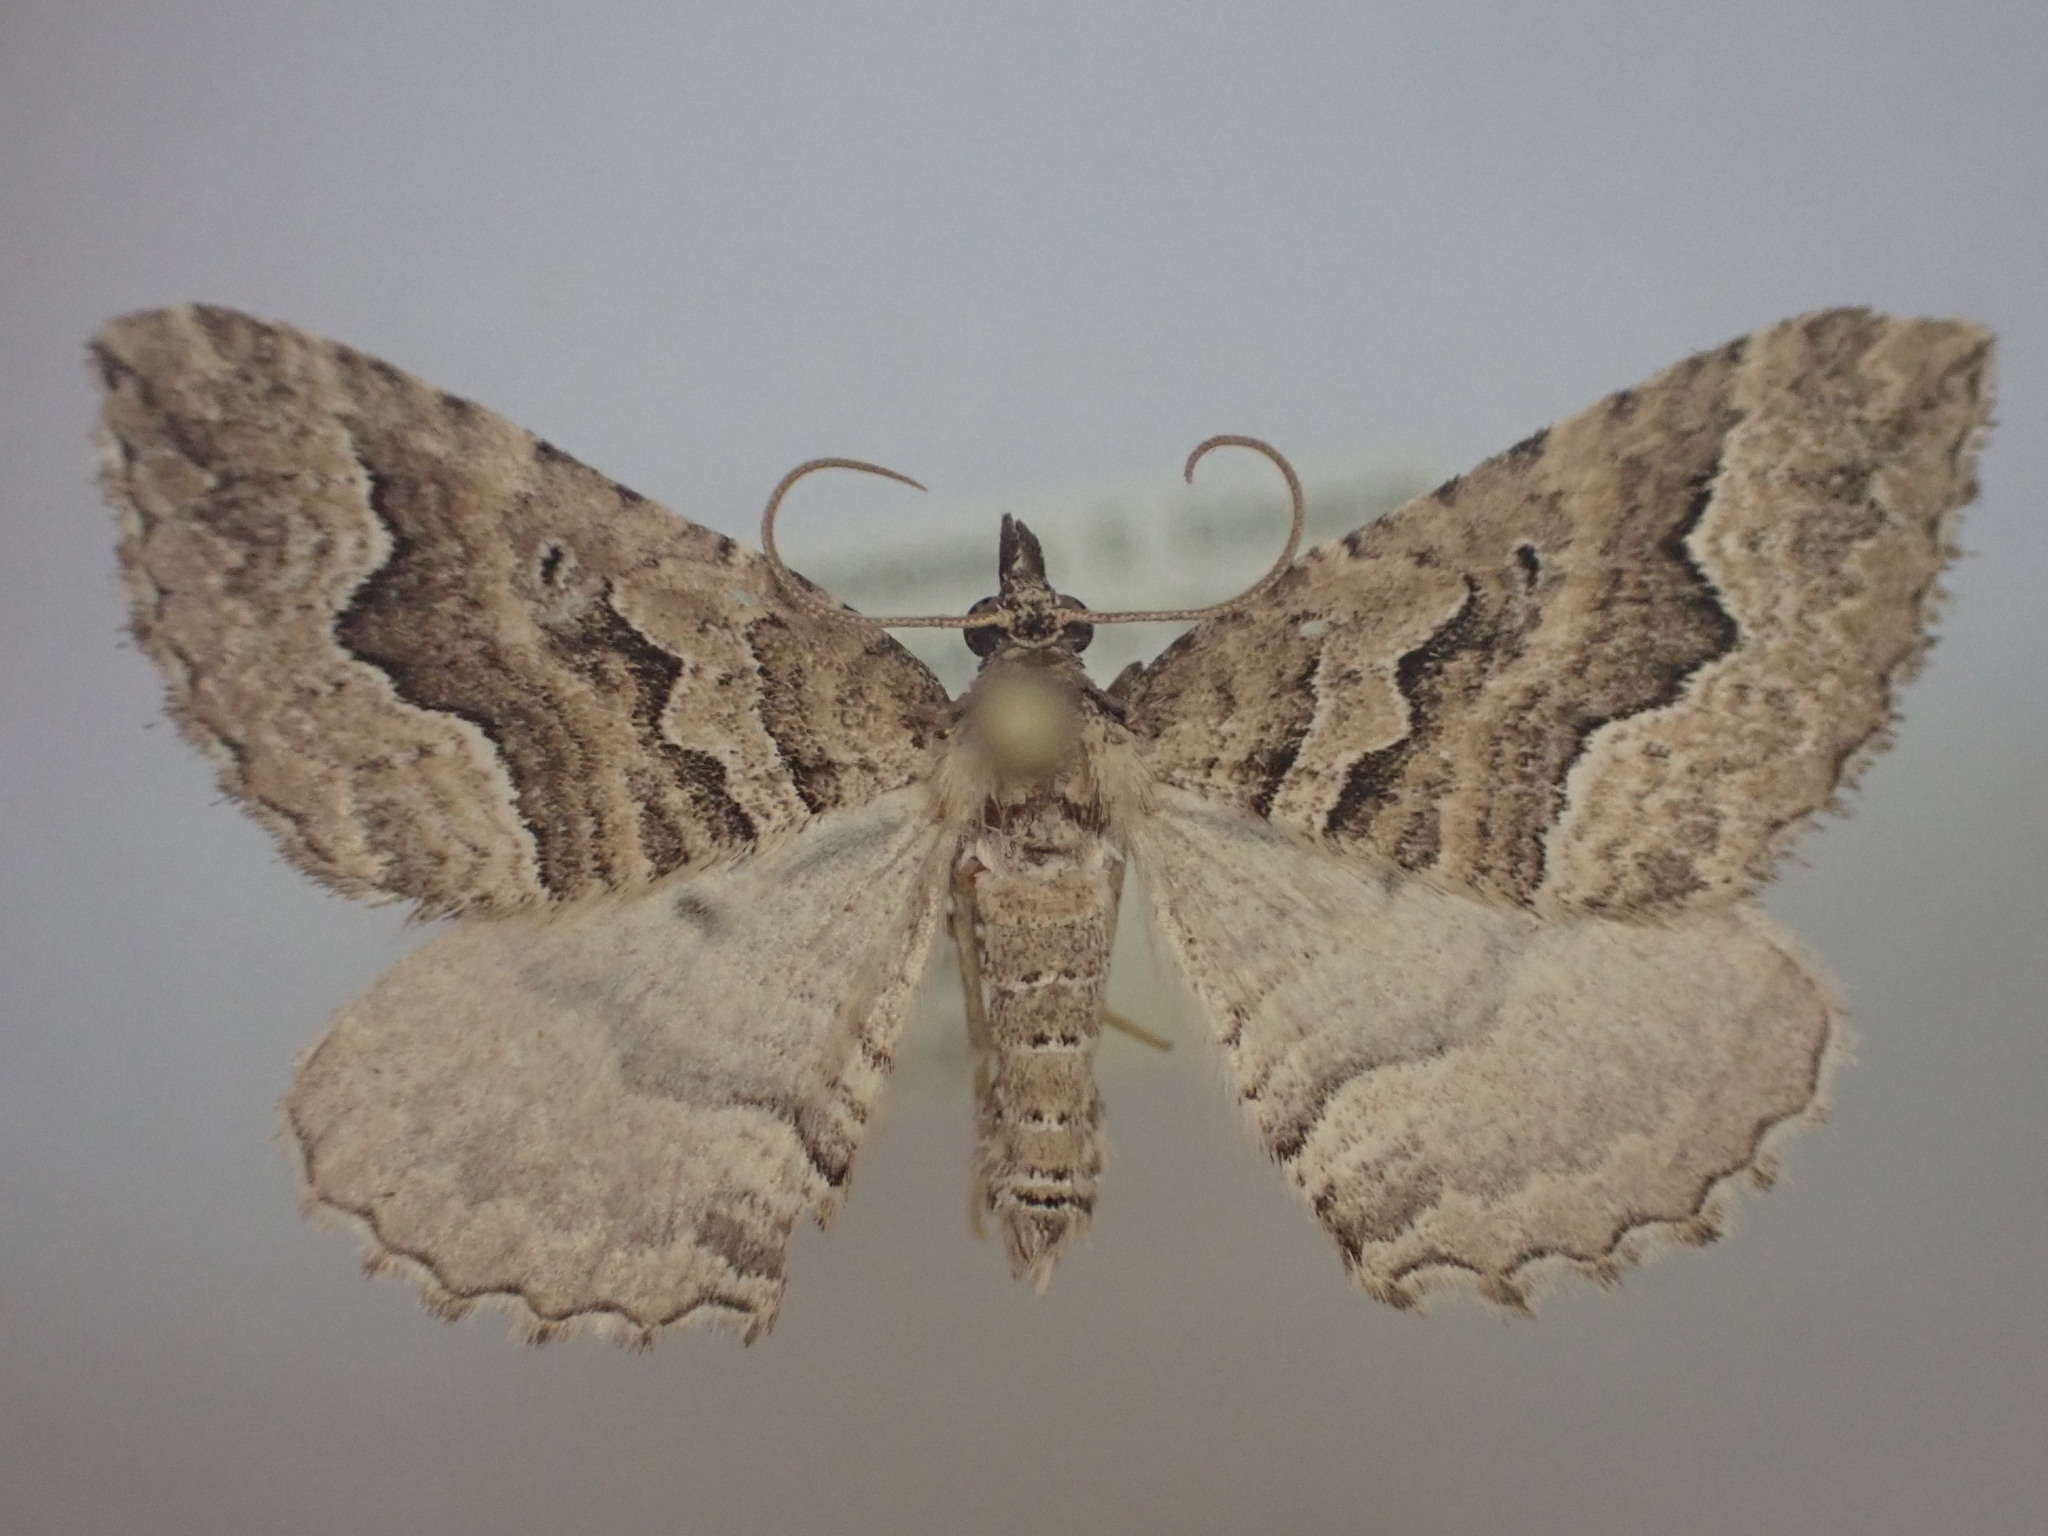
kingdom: Animalia
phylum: Arthropoda
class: Insecta
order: Lepidoptera
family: Geometridae
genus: Austrocidaria
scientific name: Austrocidaria lithurga
